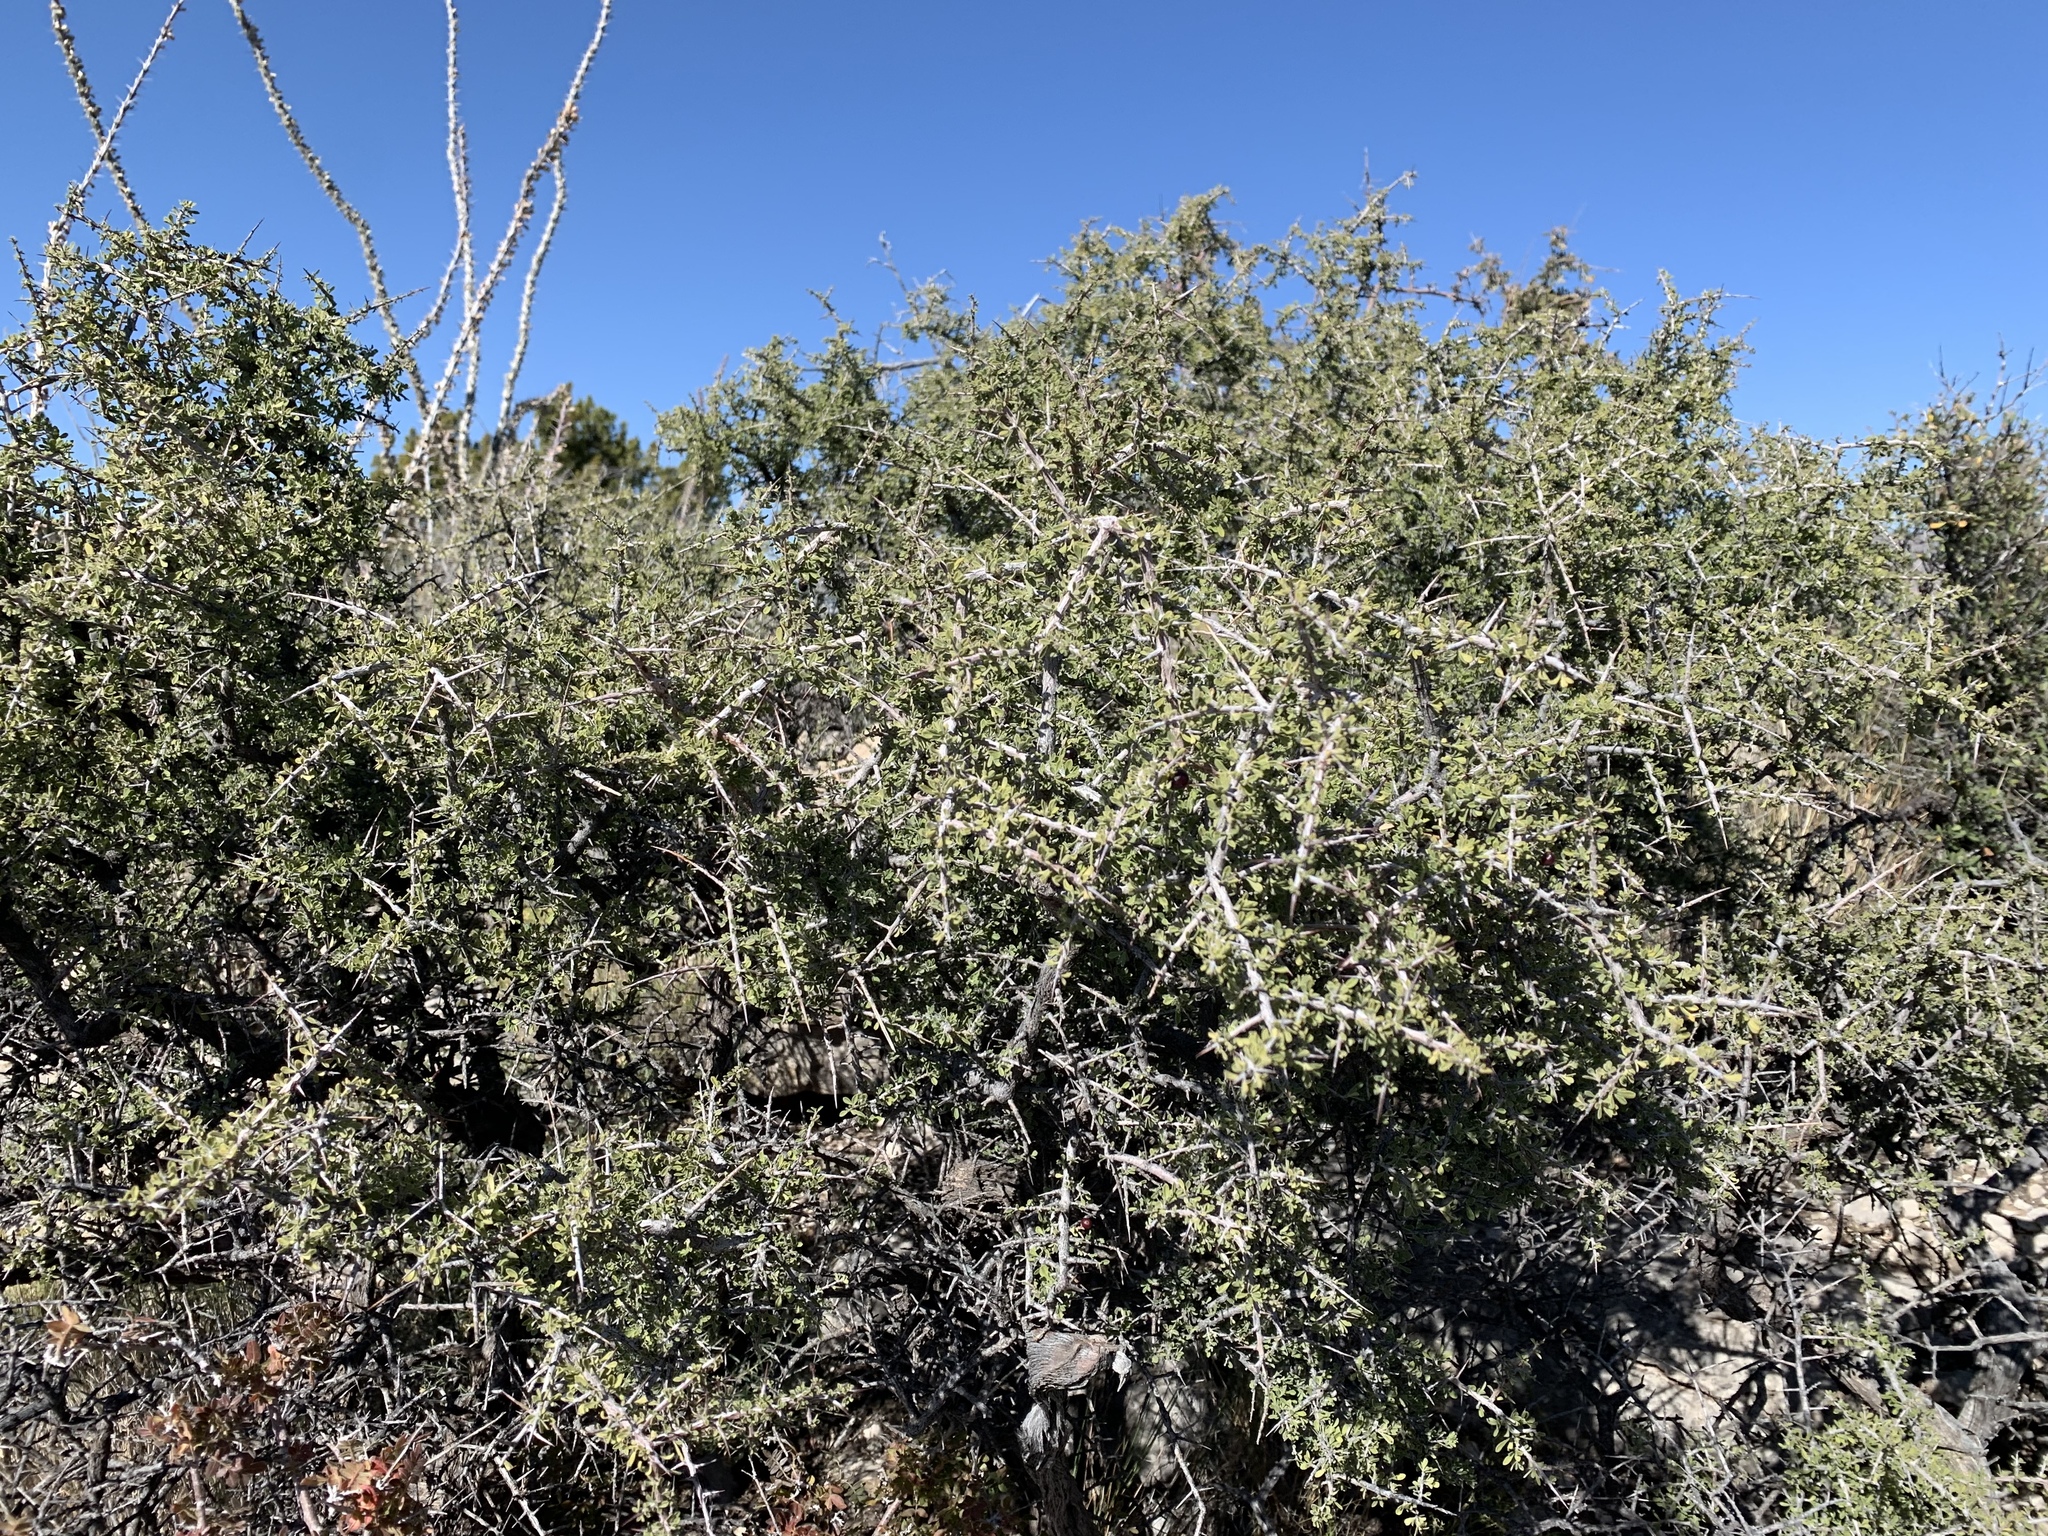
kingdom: Plantae
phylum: Tracheophyta
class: Magnoliopsida
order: Rosales
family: Rhamnaceae
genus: Condalia
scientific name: Condalia warnockii
